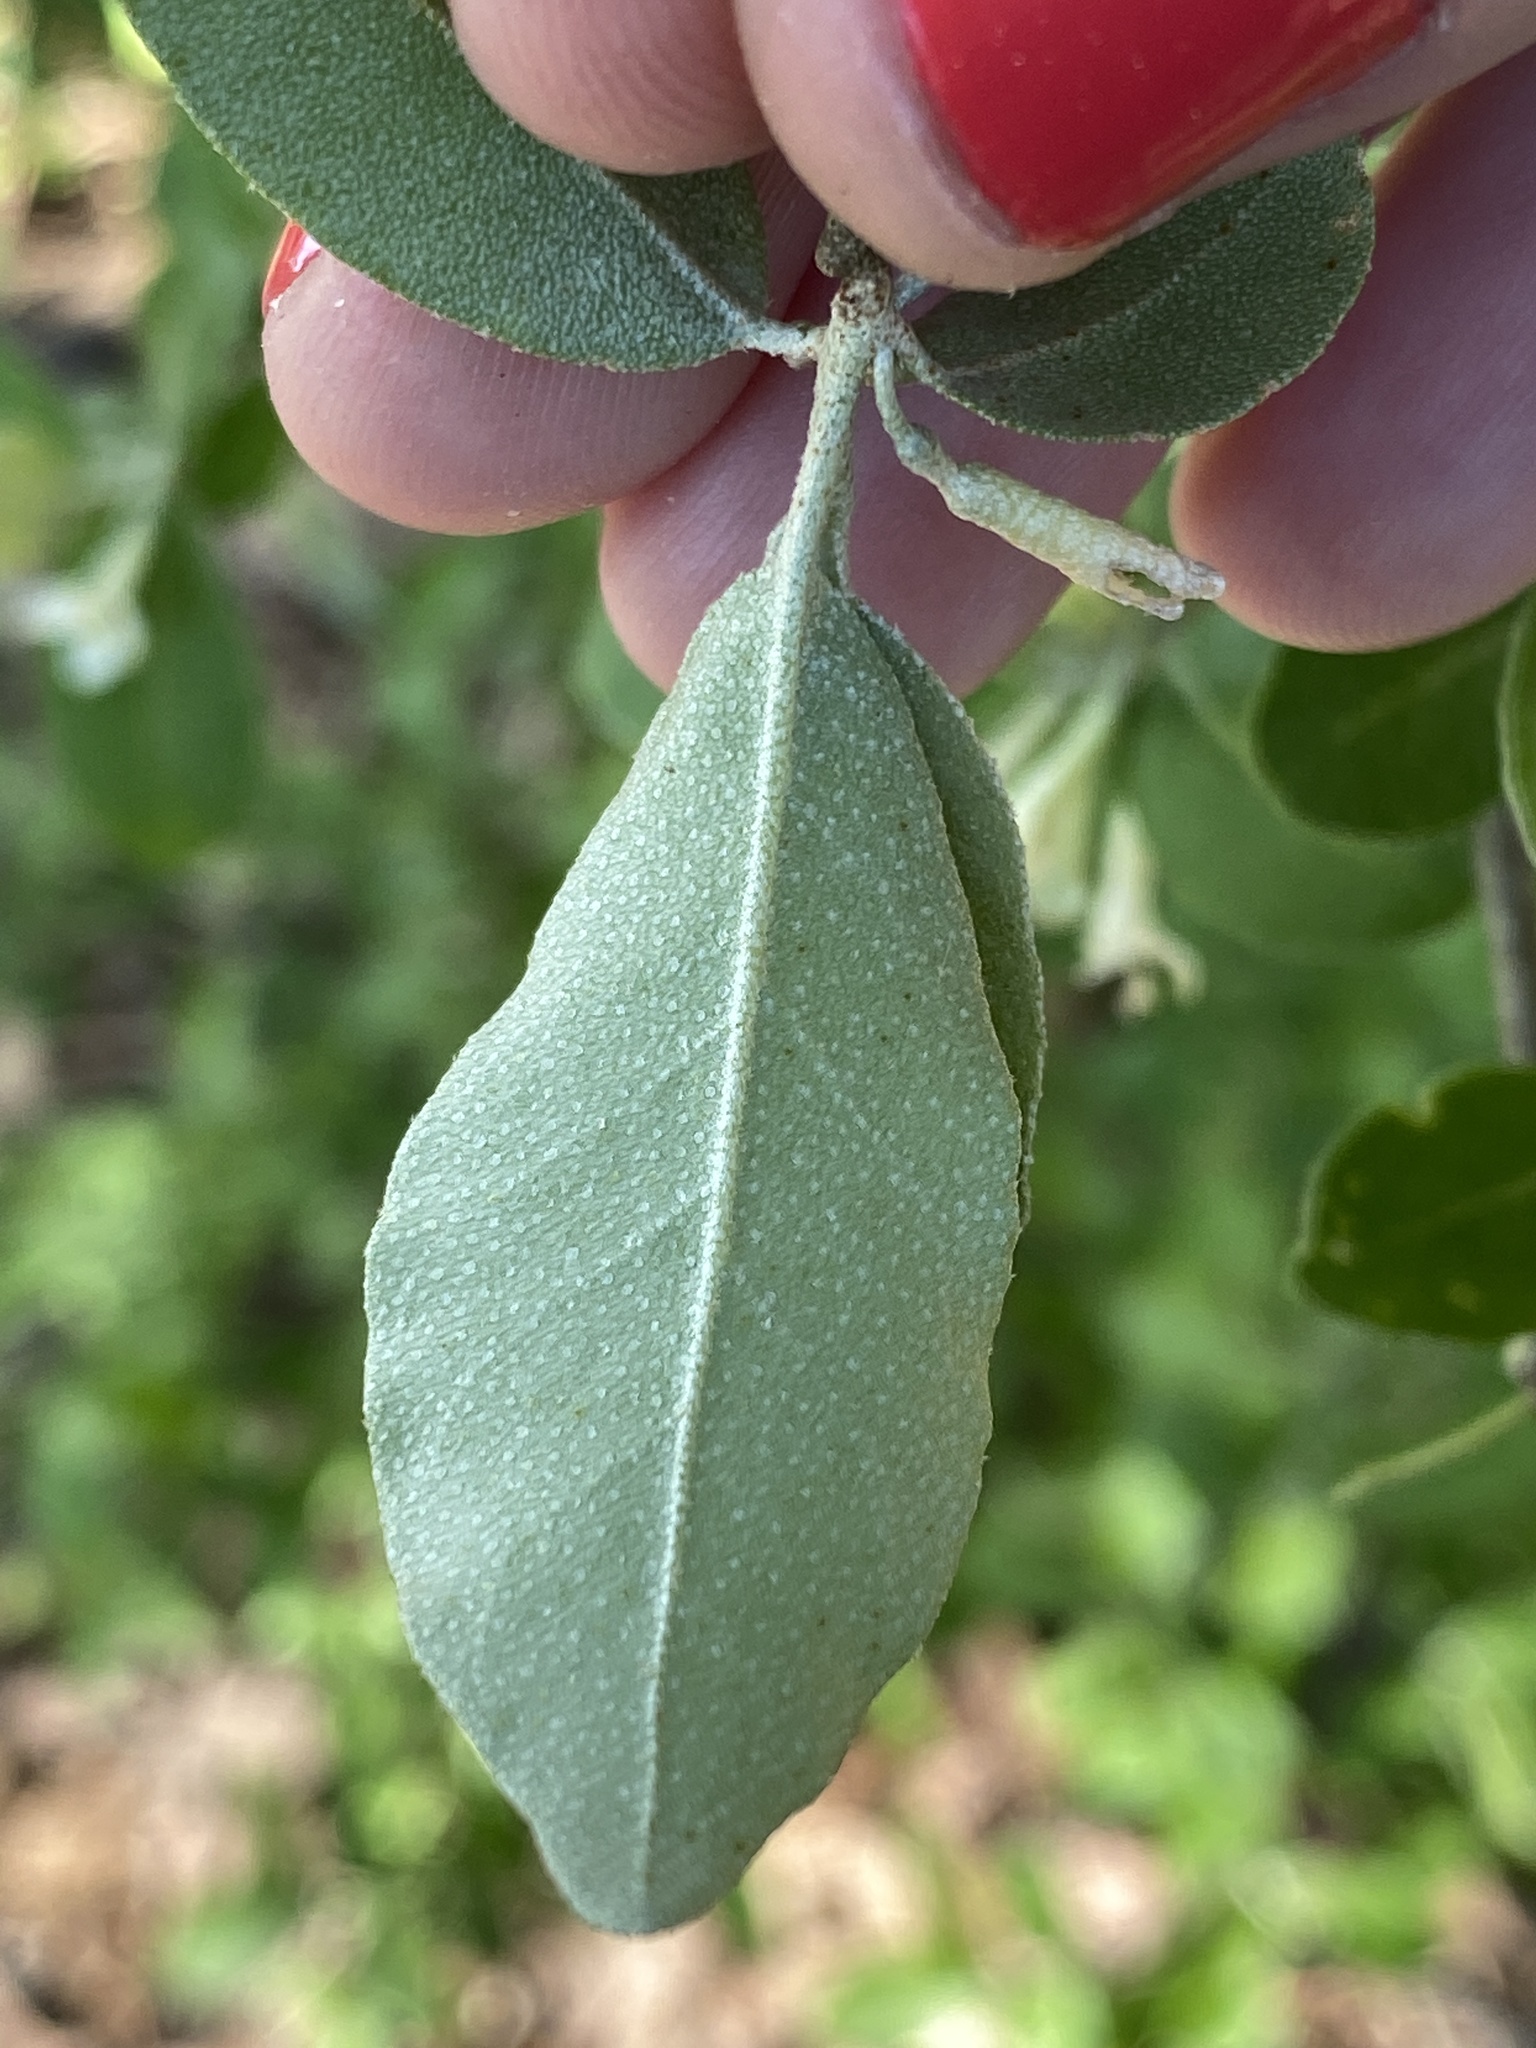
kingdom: Plantae
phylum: Tracheophyta
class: Magnoliopsida
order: Rosales
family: Elaeagnaceae
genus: Elaeagnus
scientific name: Elaeagnus umbellata
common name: Autumn olive
